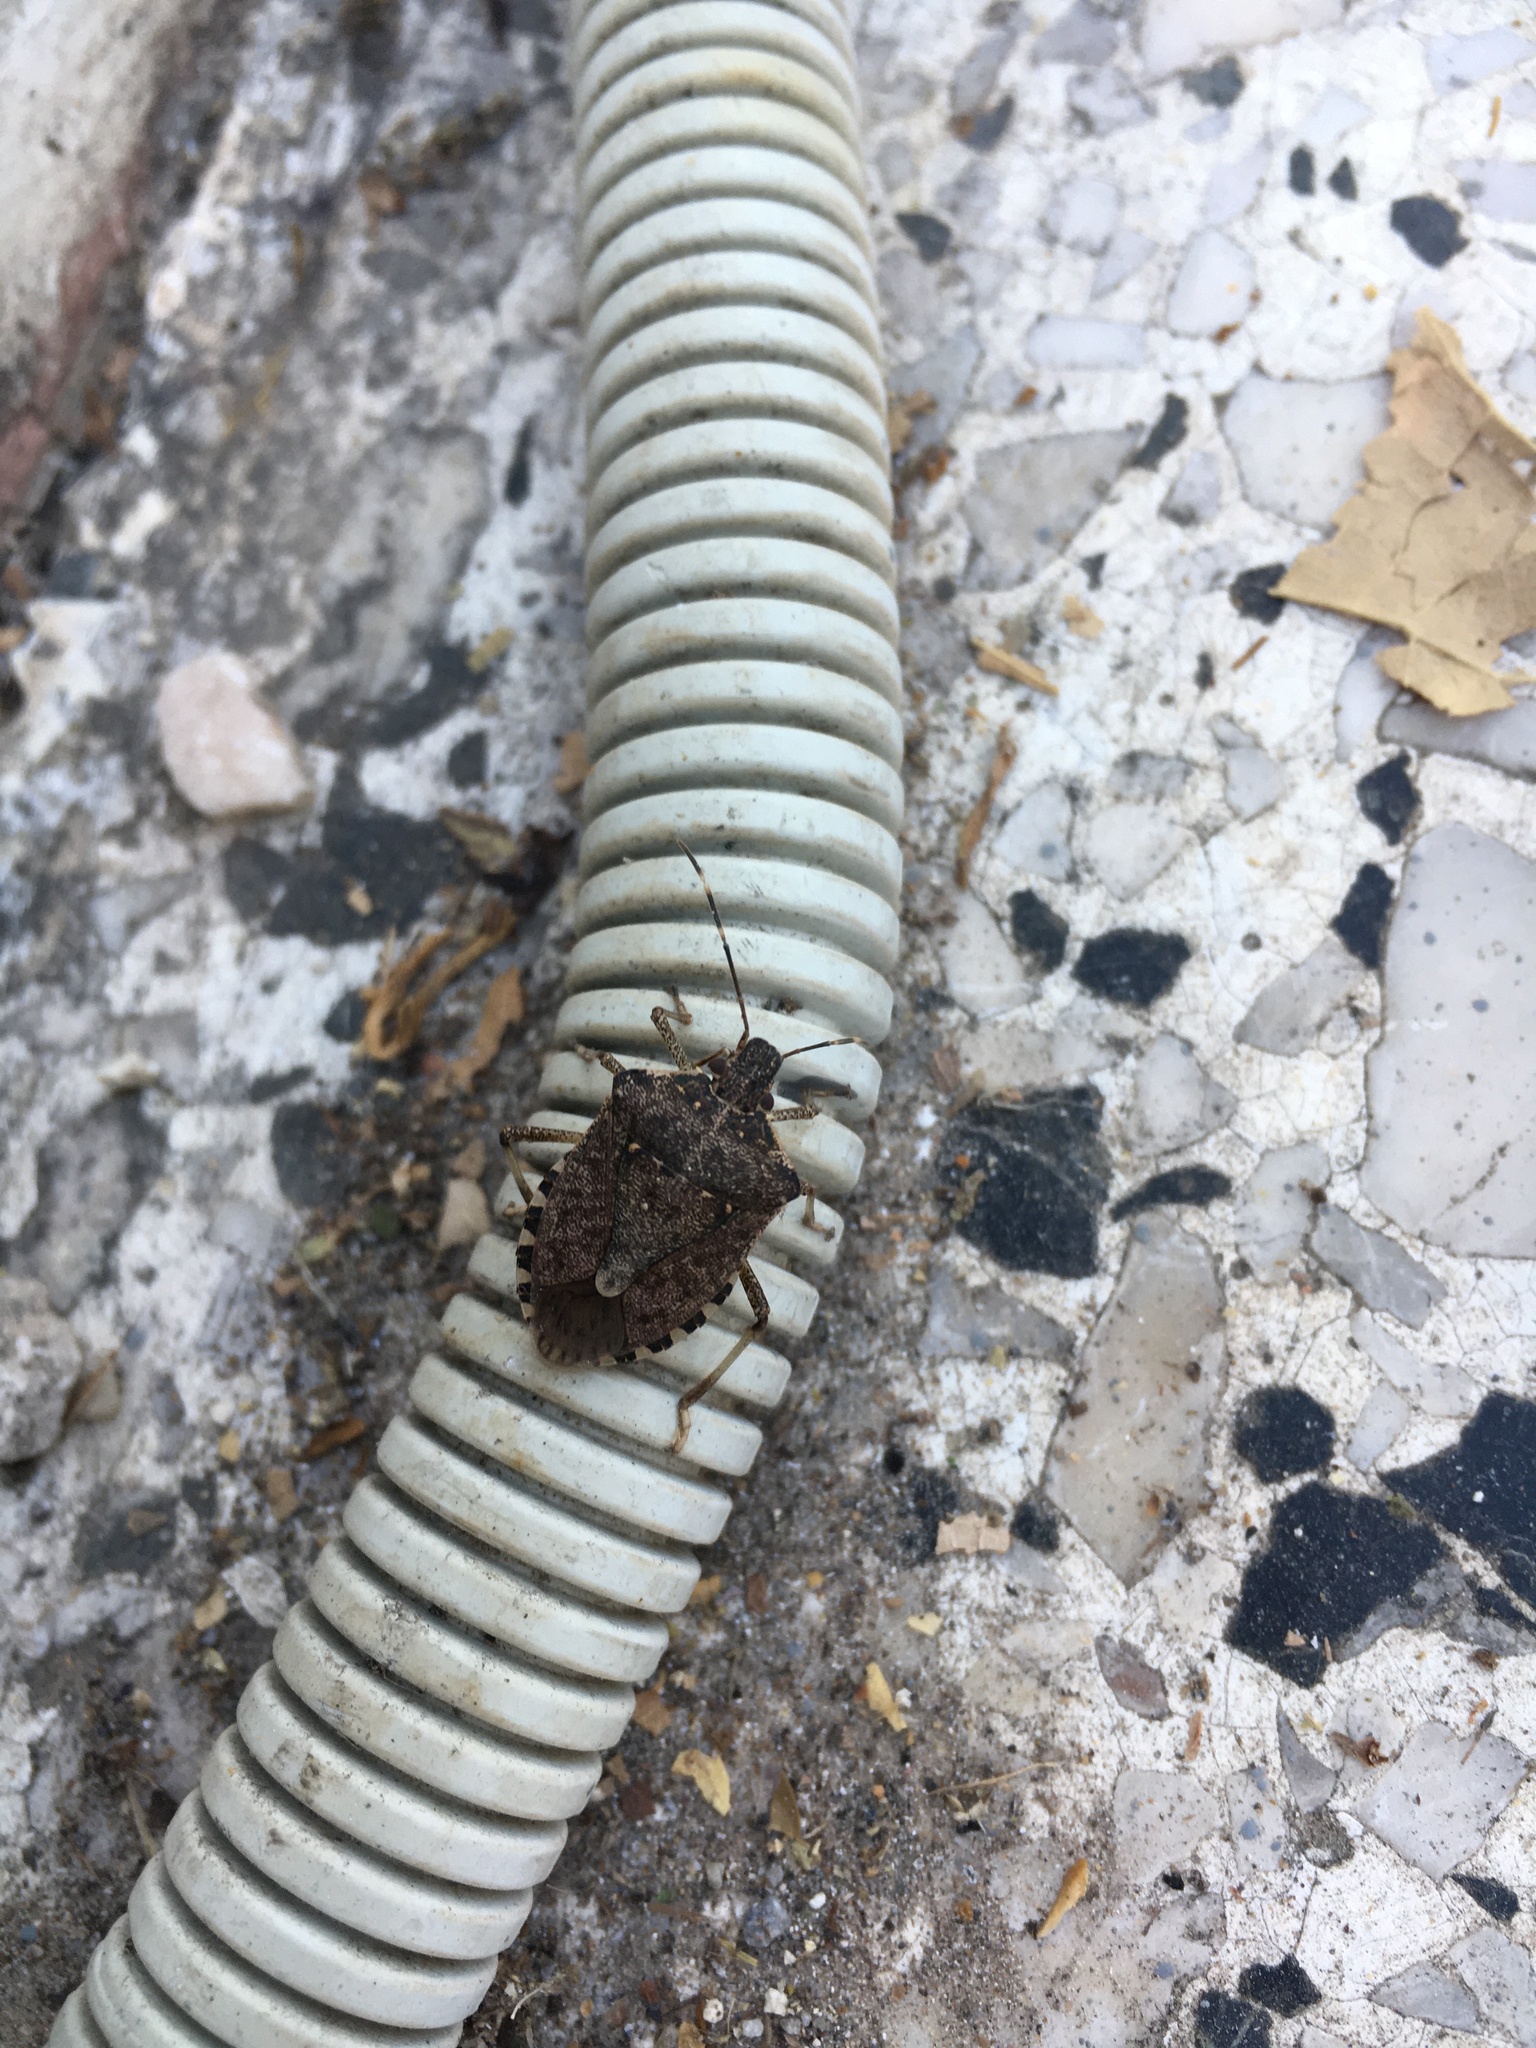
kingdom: Animalia
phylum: Arthropoda
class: Insecta
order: Hemiptera
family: Pentatomidae
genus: Halyomorpha
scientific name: Halyomorpha halys
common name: Brown marmorated stink bug
